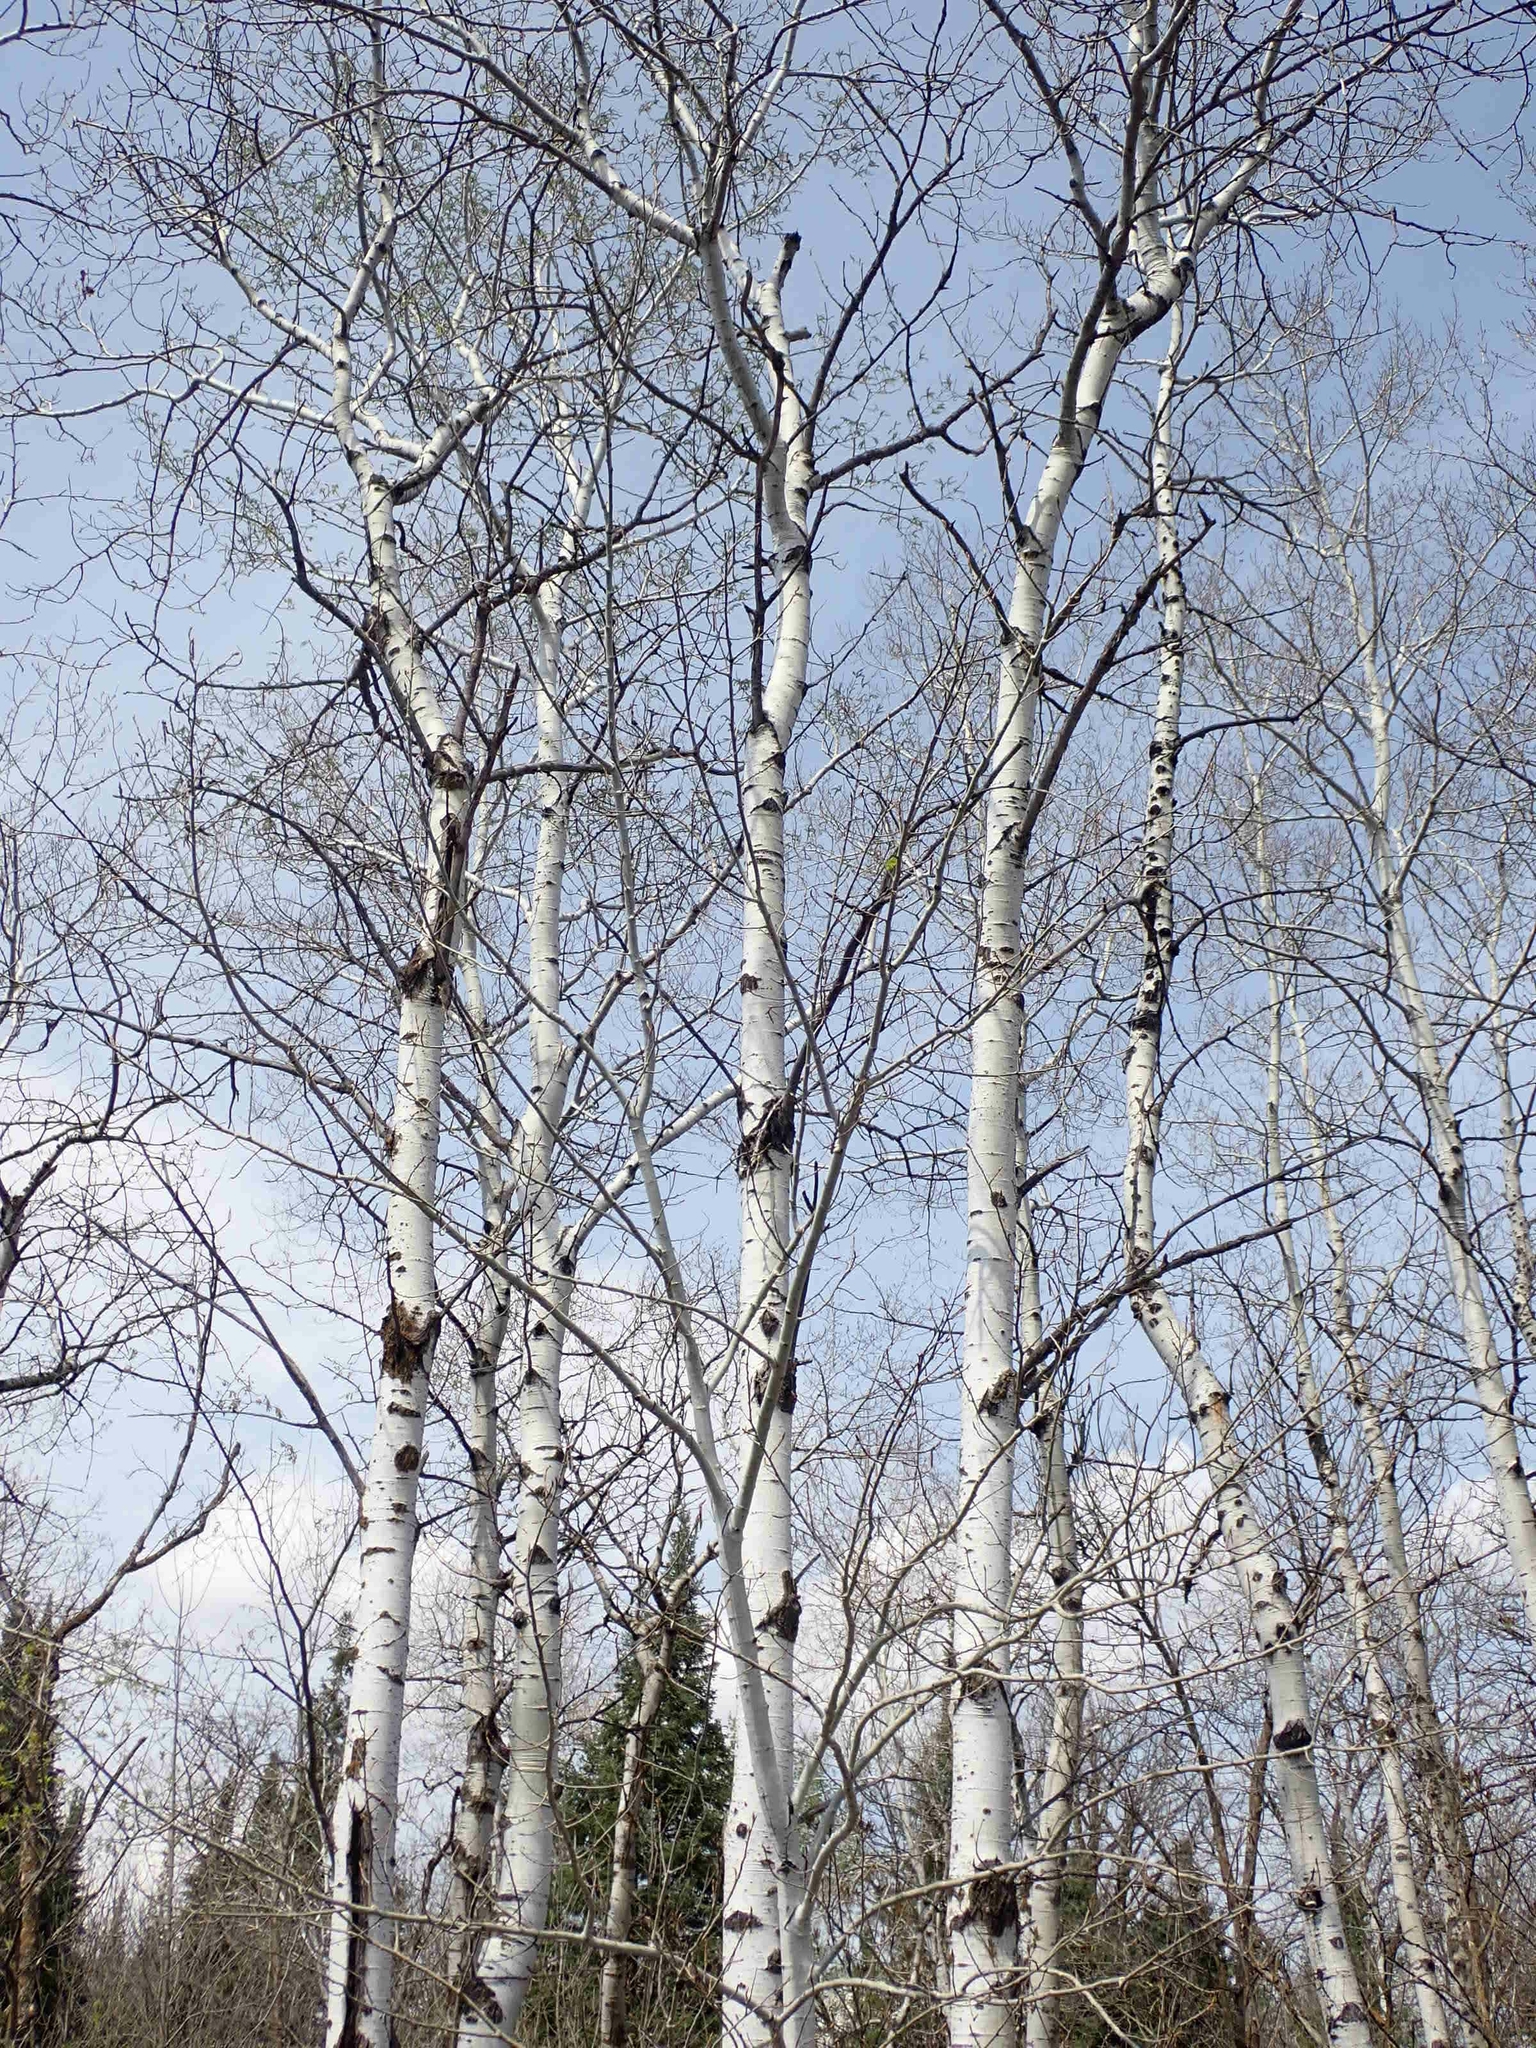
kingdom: Plantae
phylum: Tracheophyta
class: Magnoliopsida
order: Malpighiales
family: Salicaceae
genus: Populus
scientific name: Populus tremuloides
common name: Quaking aspen
